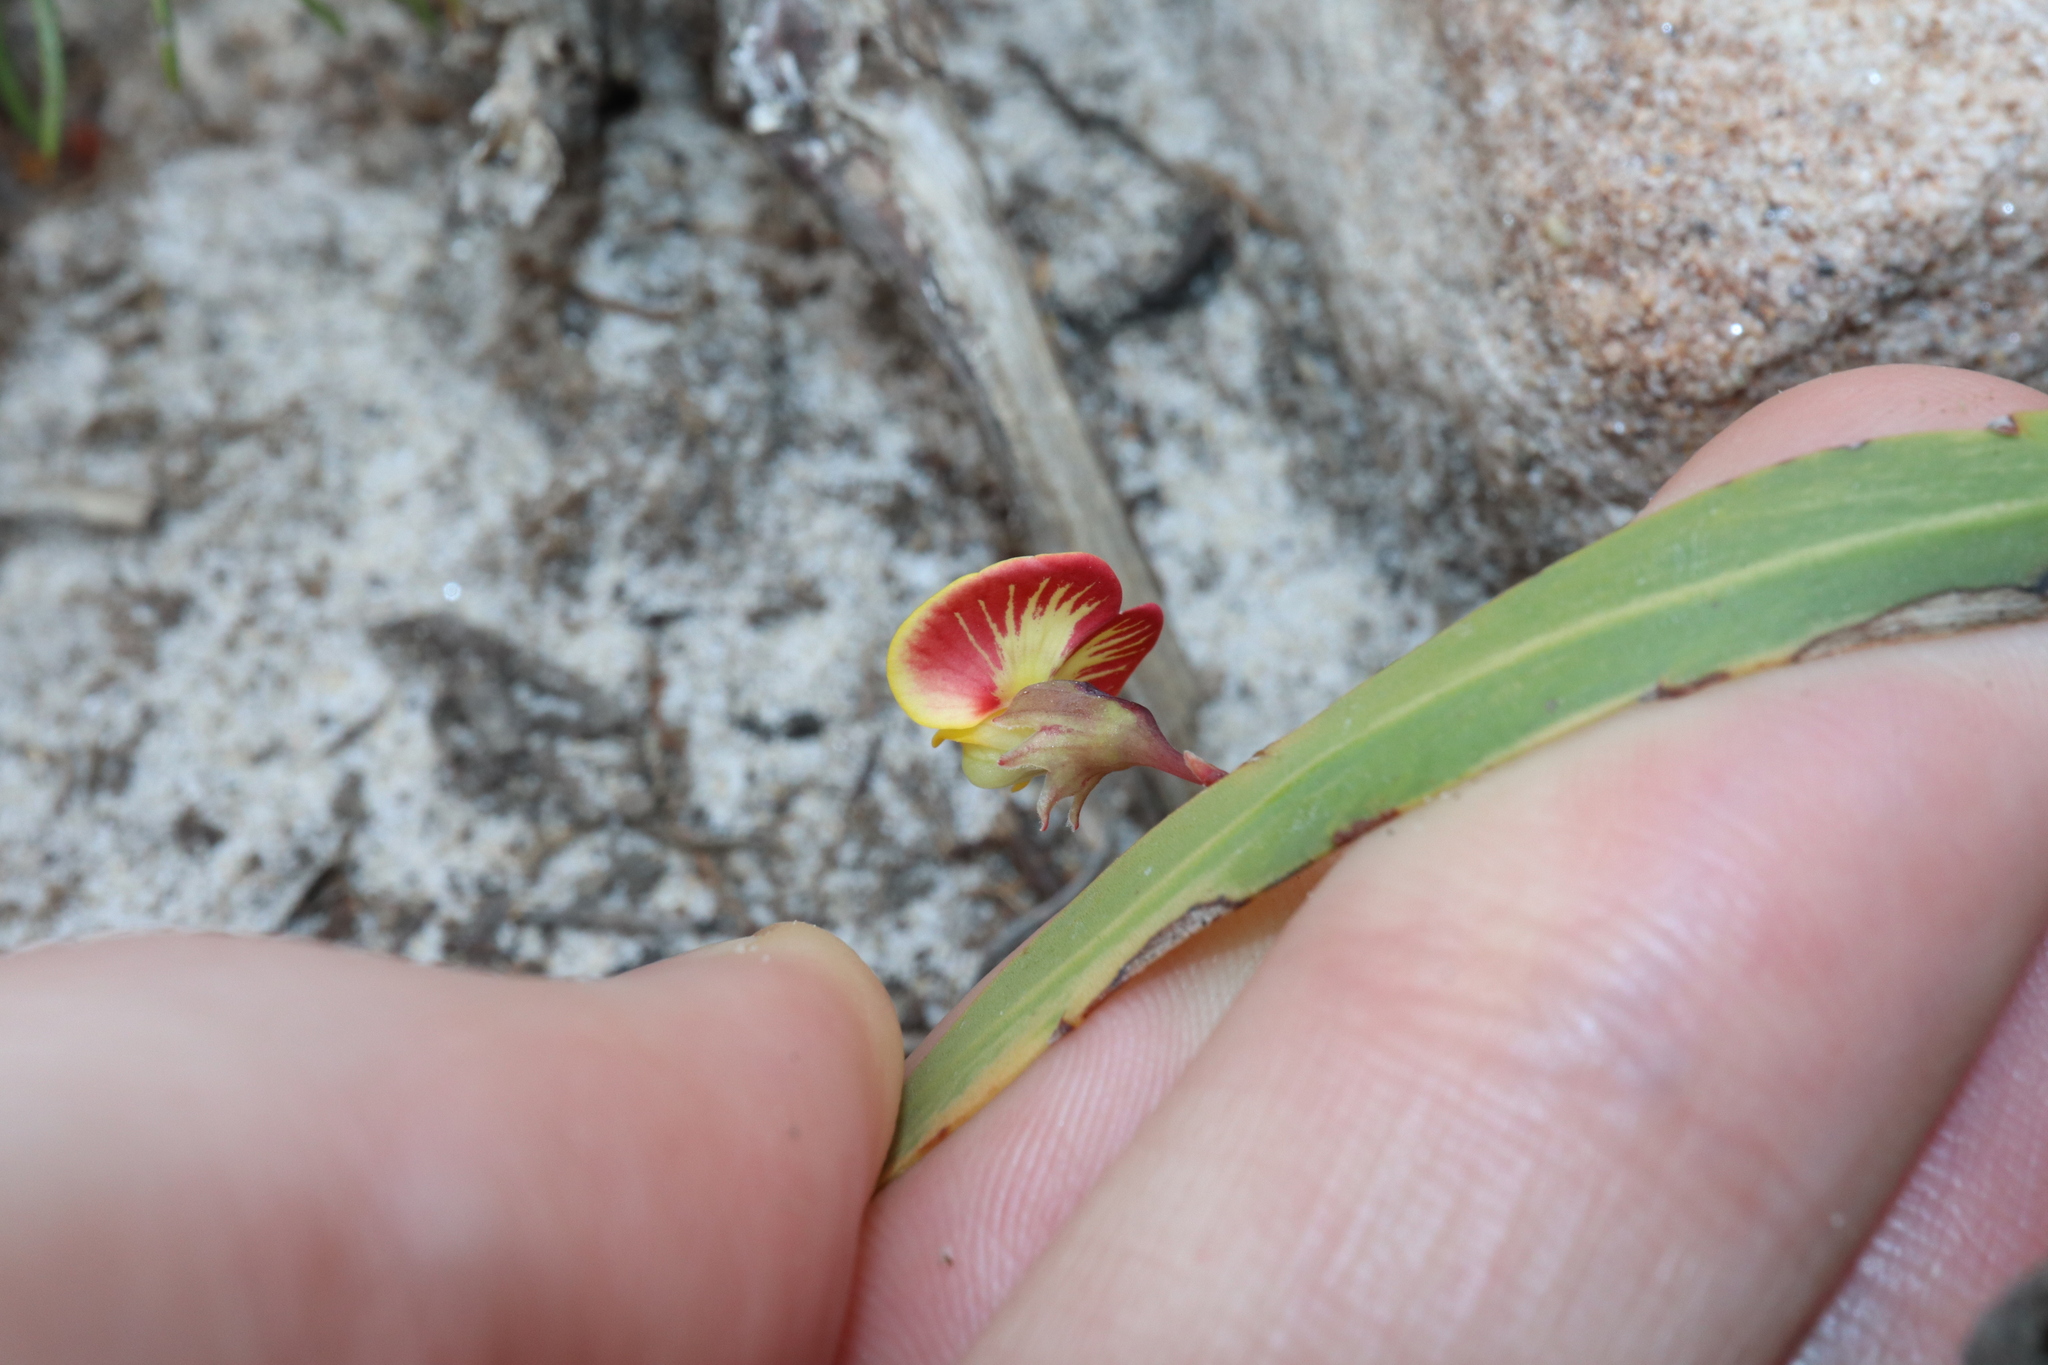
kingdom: Plantae
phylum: Tracheophyta
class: Magnoliopsida
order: Fabales
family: Fabaceae
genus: Bossiaea
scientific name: Bossiaea ensata
